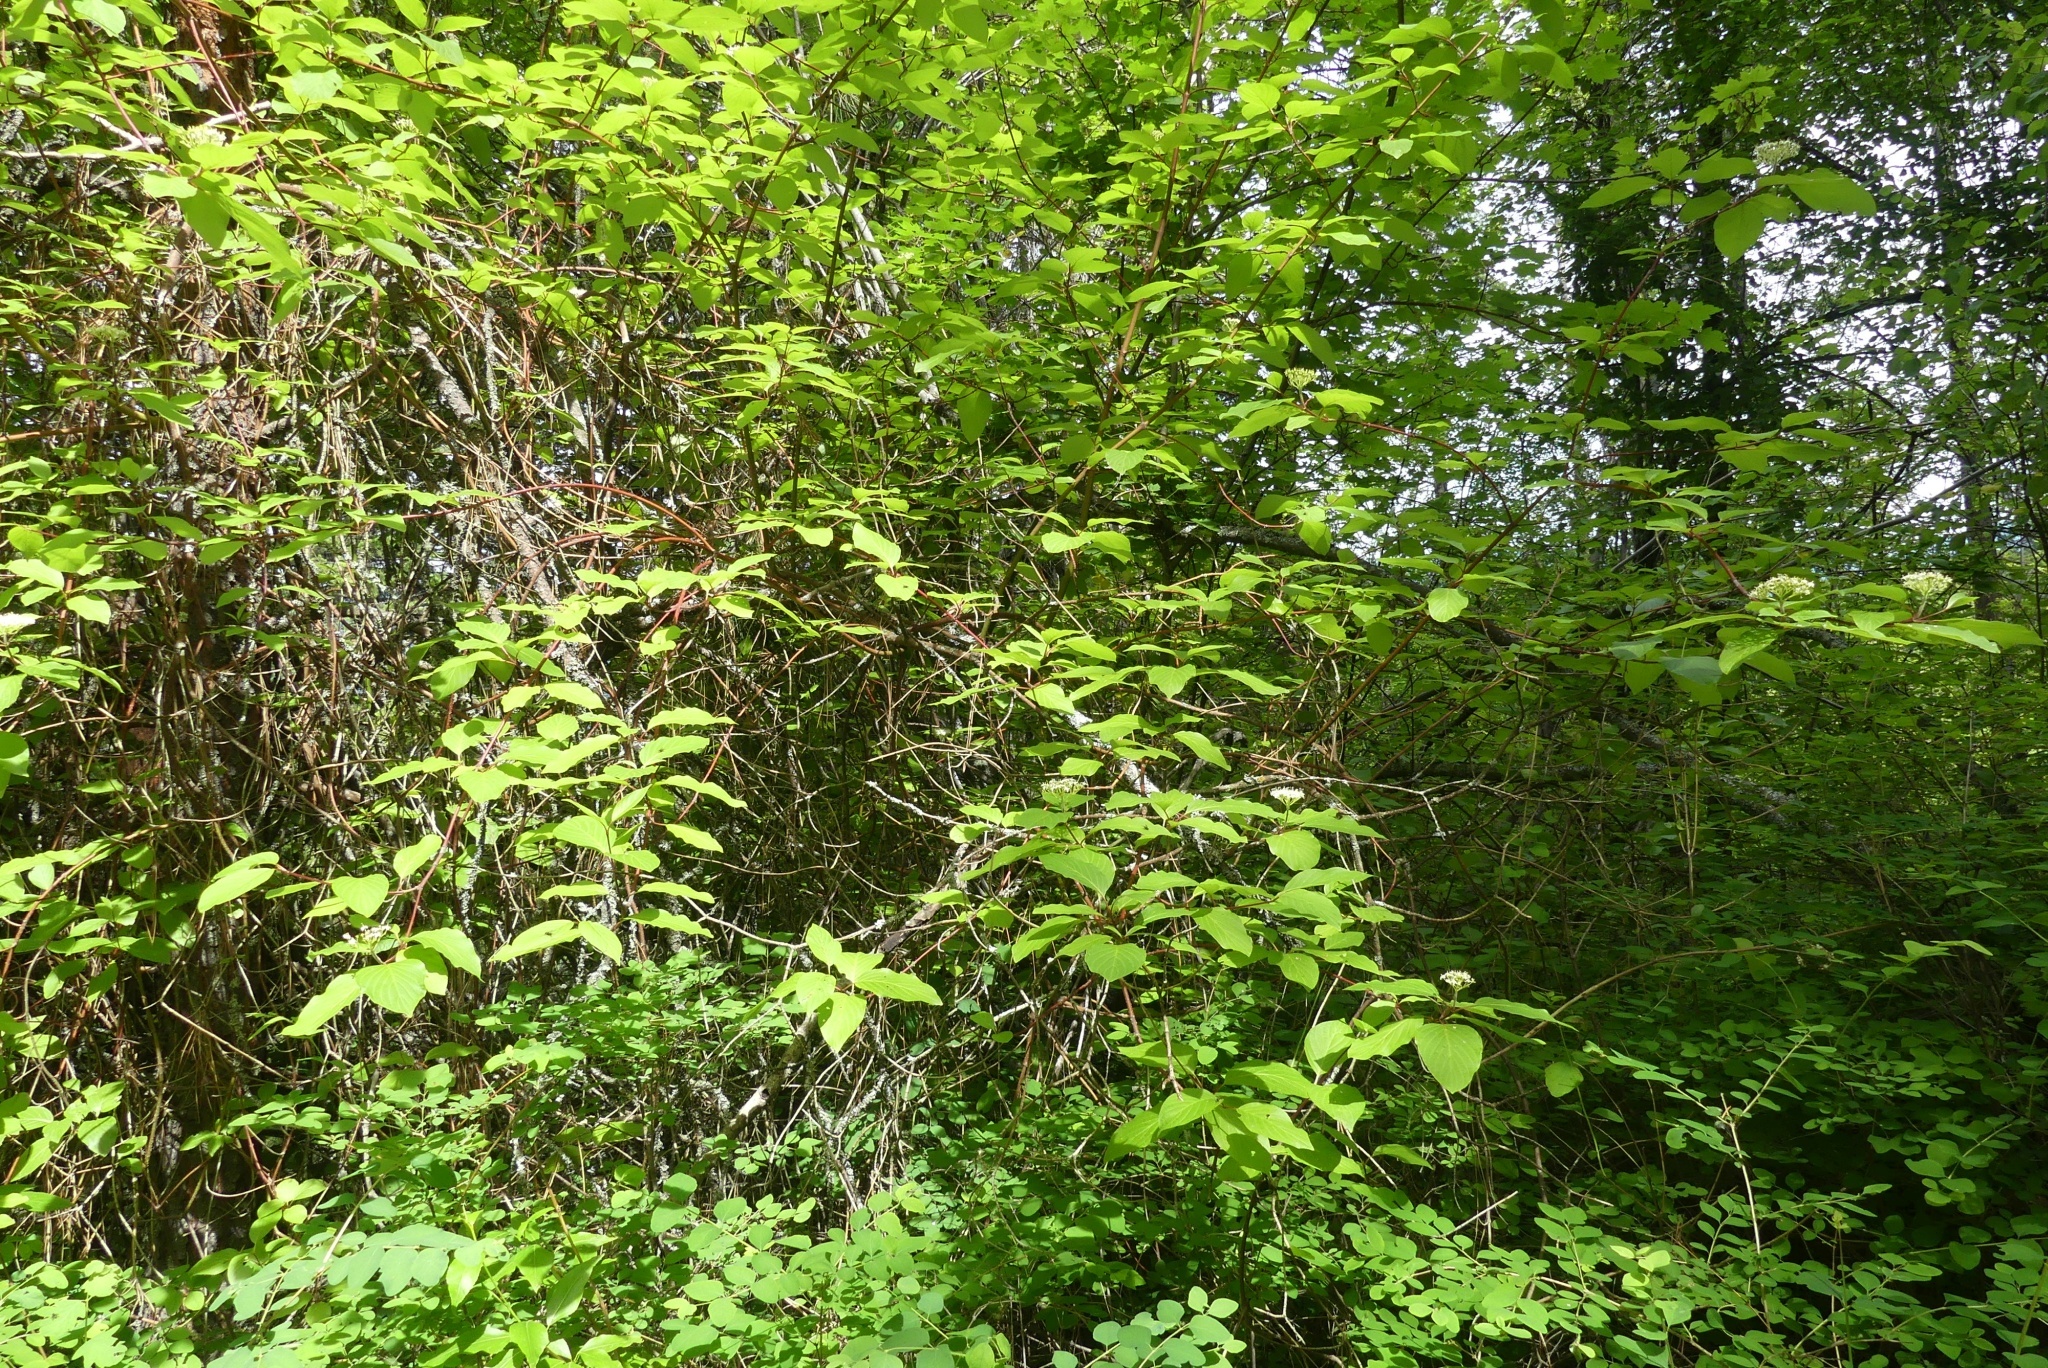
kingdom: Plantae
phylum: Tracheophyta
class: Magnoliopsida
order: Cornales
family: Cornaceae
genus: Cornus
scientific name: Cornus sericea
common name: Red-osier dogwood
